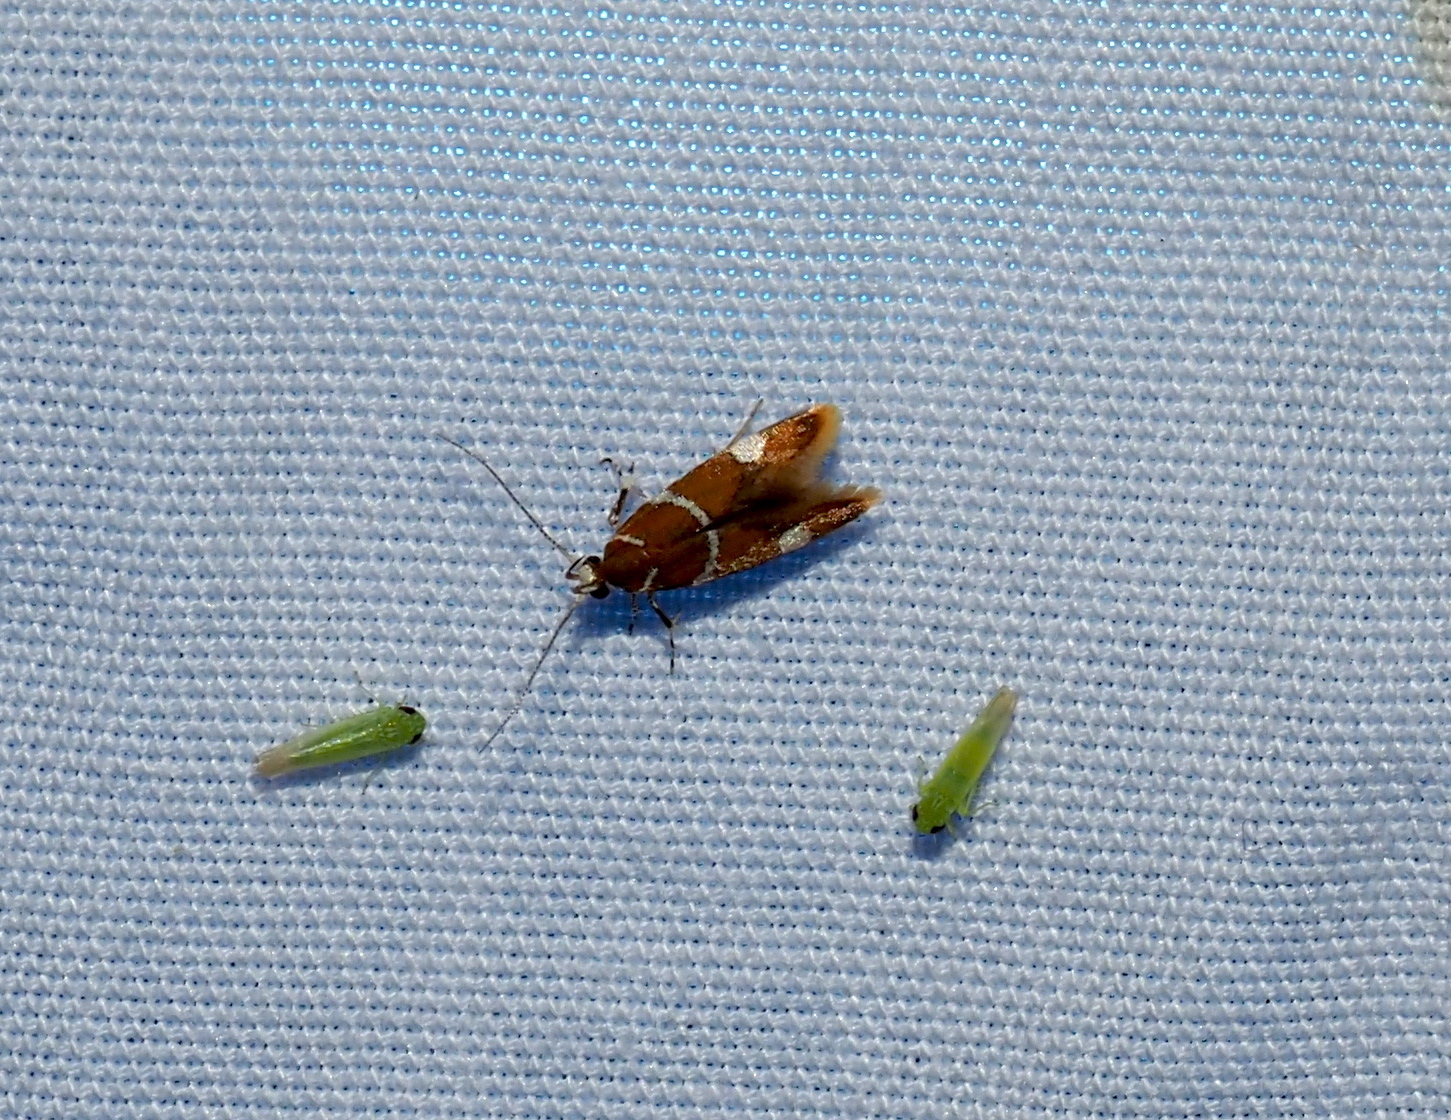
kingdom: Animalia
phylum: Arthropoda
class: Insecta
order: Lepidoptera
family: Oecophoridae
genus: Promalactis
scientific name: Promalactis suzukiella
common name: Moth
